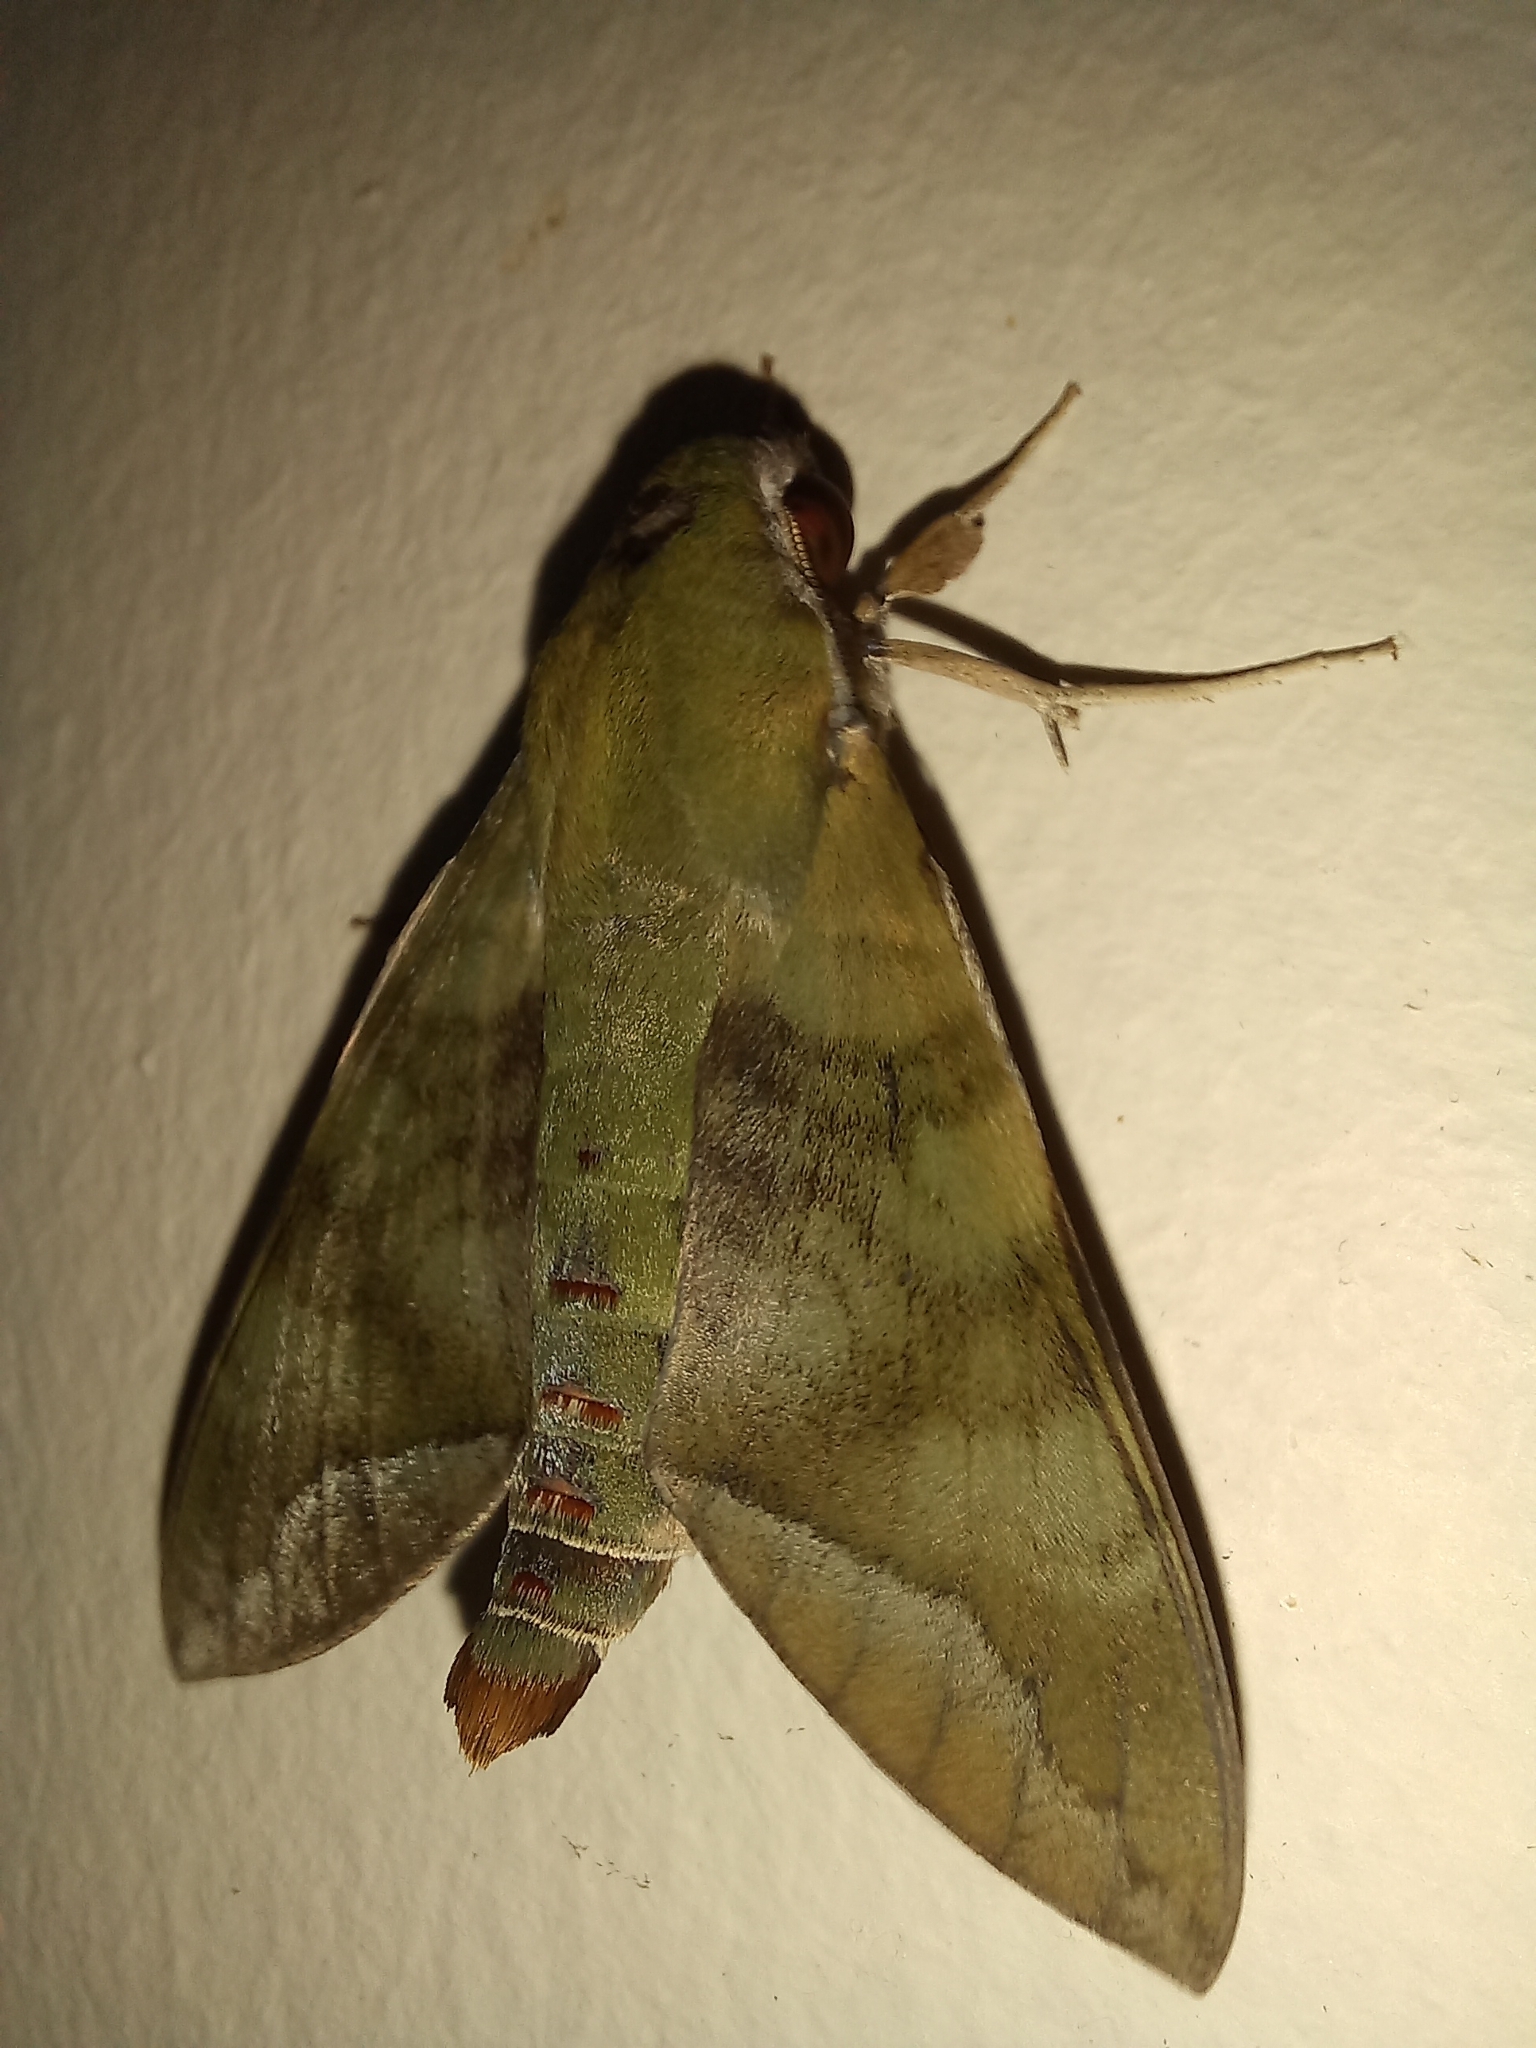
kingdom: Animalia
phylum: Arthropoda
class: Insecta
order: Lepidoptera
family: Sphingidae
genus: Nephele
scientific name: Nephele comma
